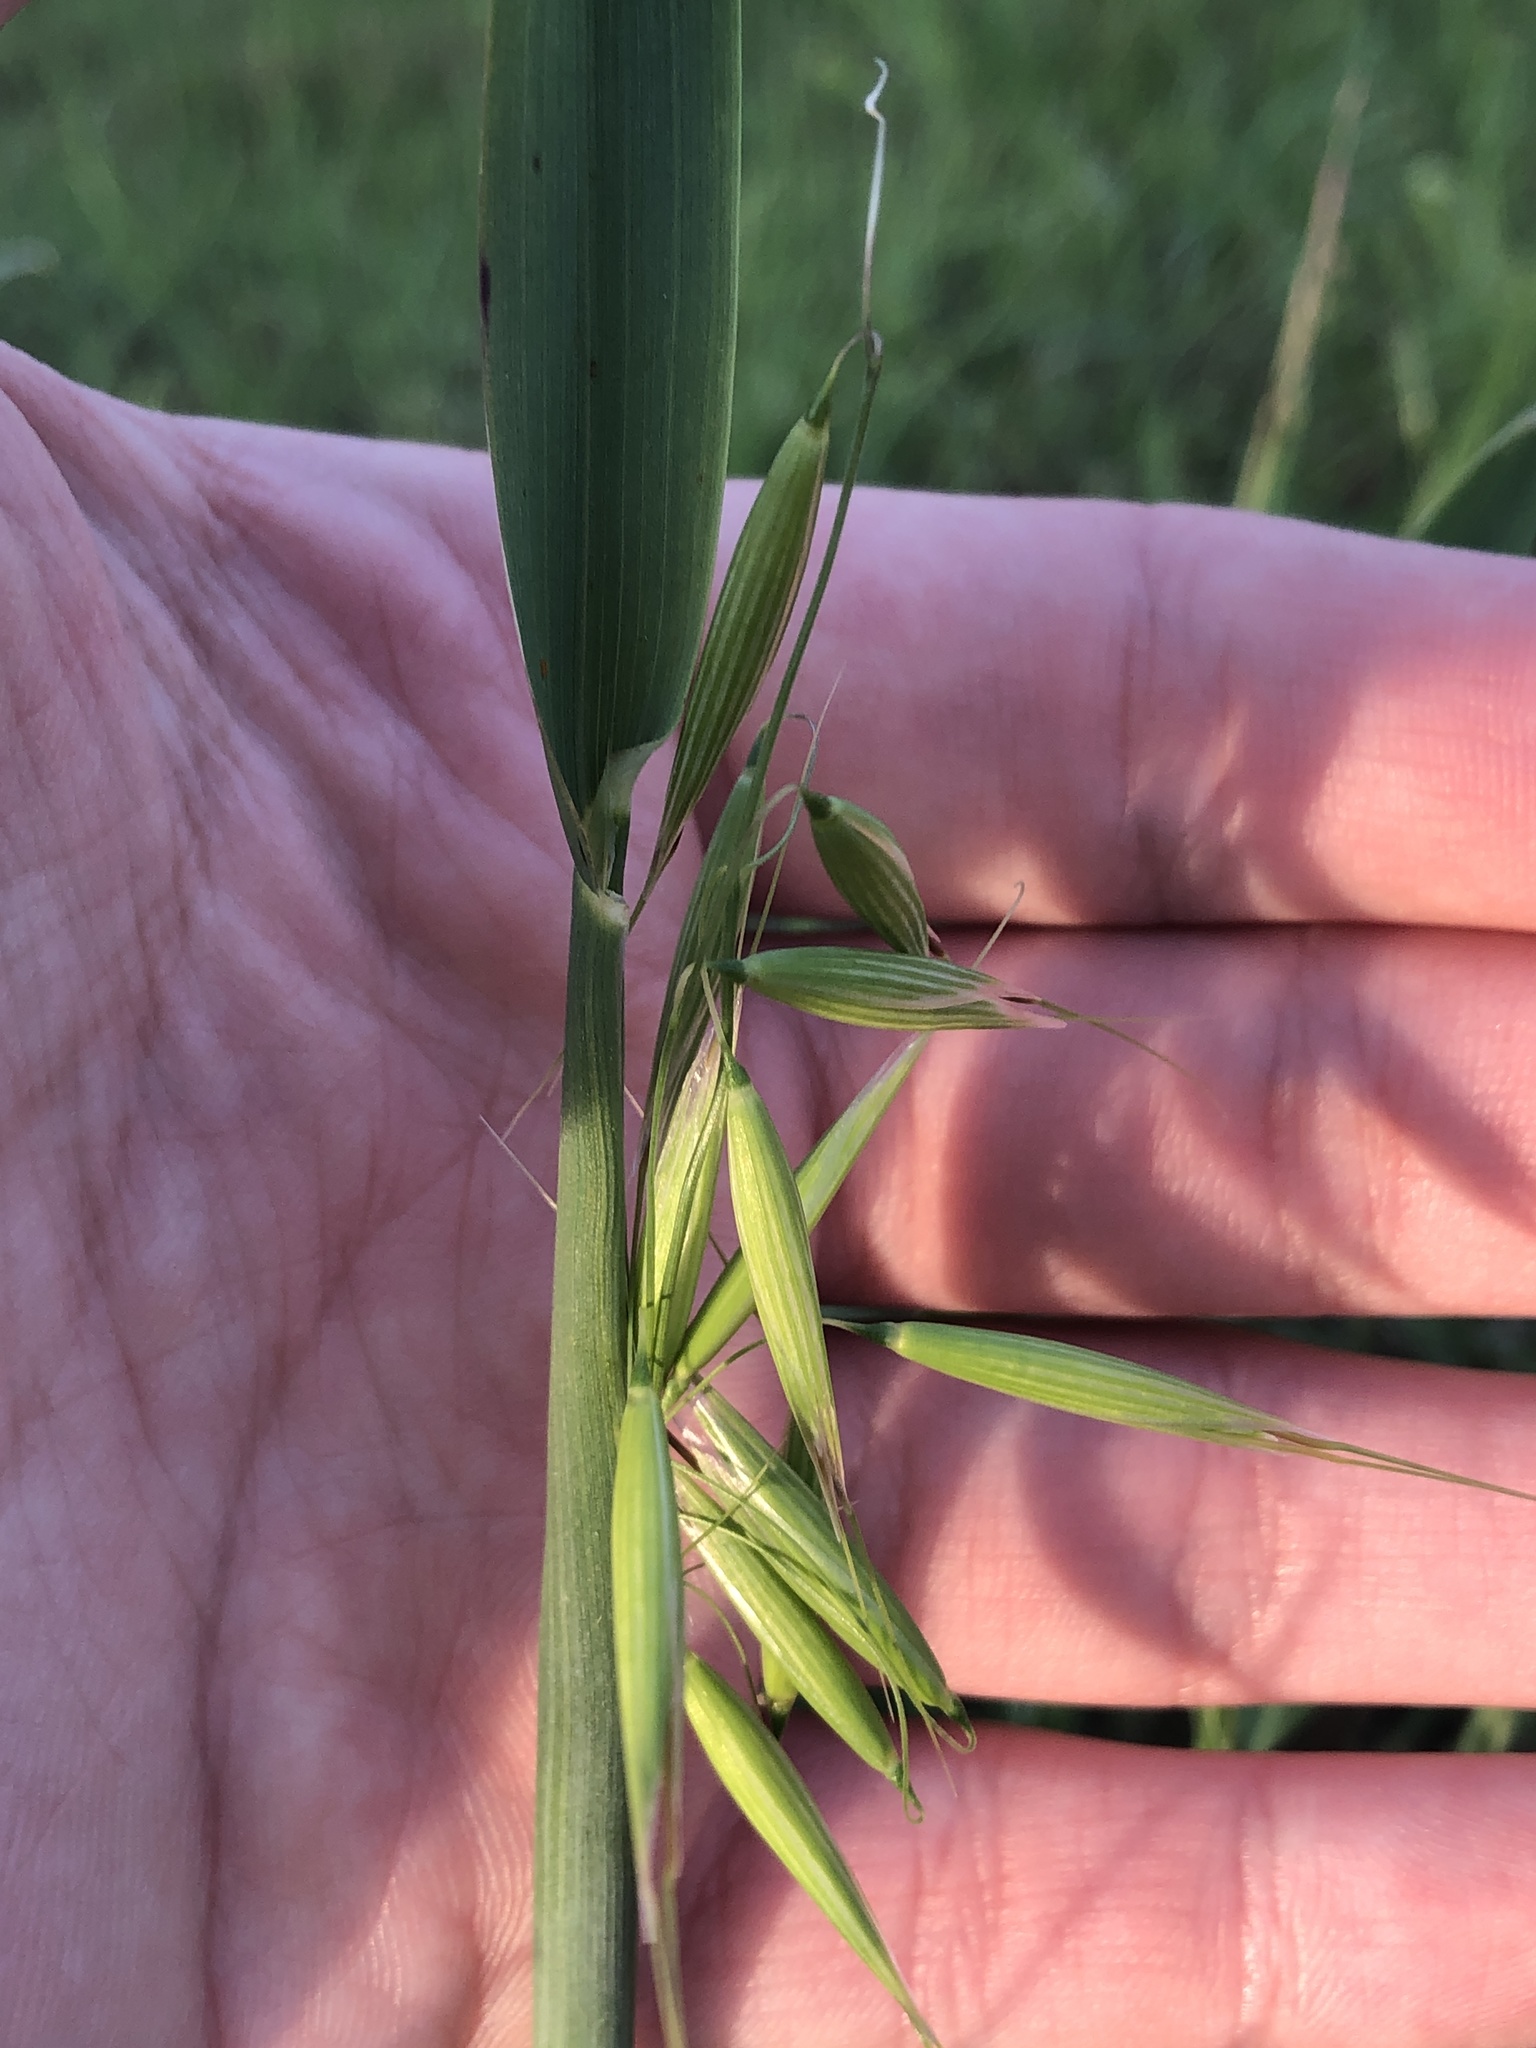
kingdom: Plantae
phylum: Tracheophyta
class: Liliopsida
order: Poales
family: Poaceae
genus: Avena
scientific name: Avena fatua
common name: Wild oat
